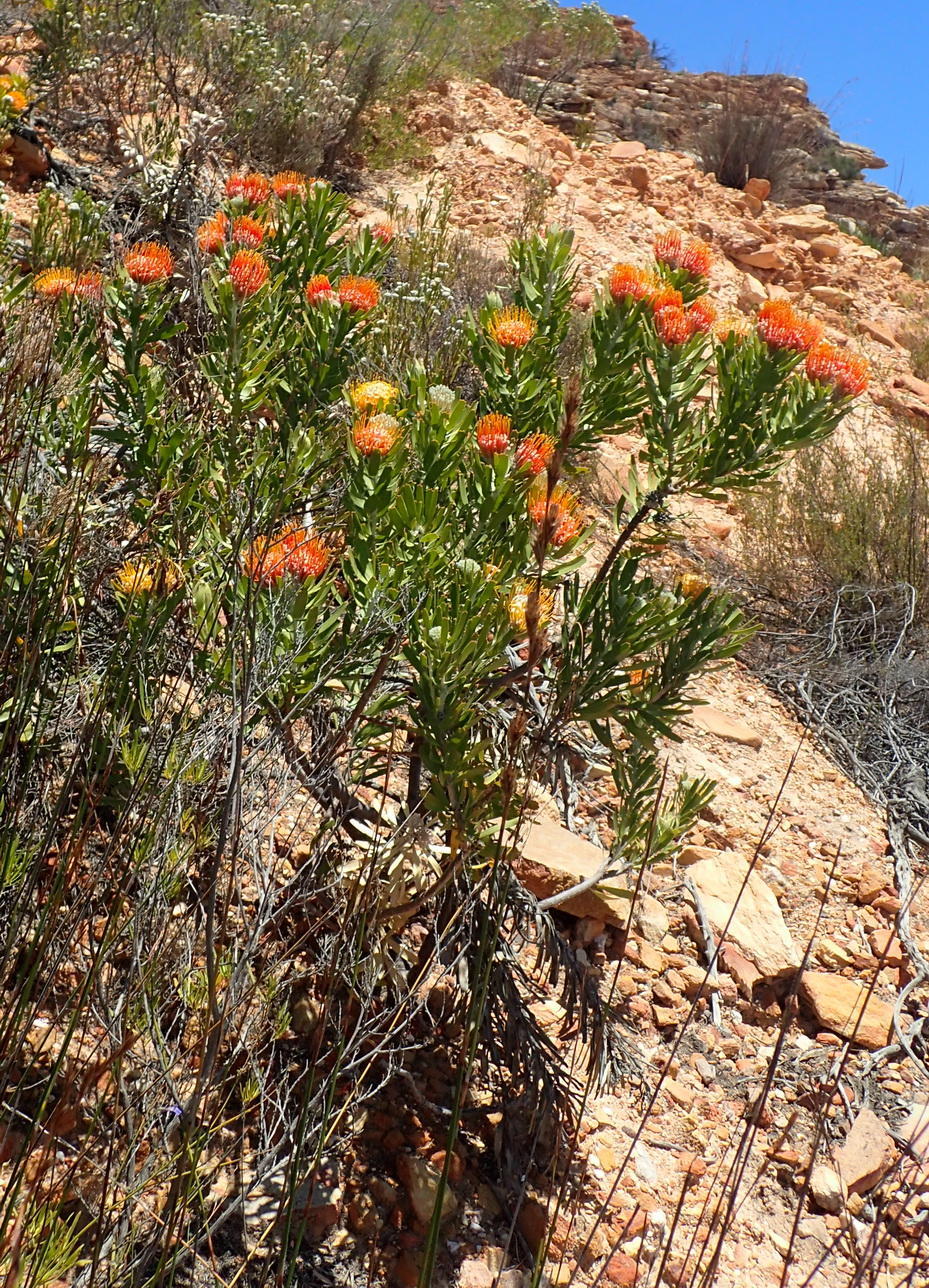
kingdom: Plantae
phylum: Tracheophyta
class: Magnoliopsida
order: Proteales
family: Proteaceae
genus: Leucospermum
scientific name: Leucospermum erubescens
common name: Oudtshoorn pincushion
